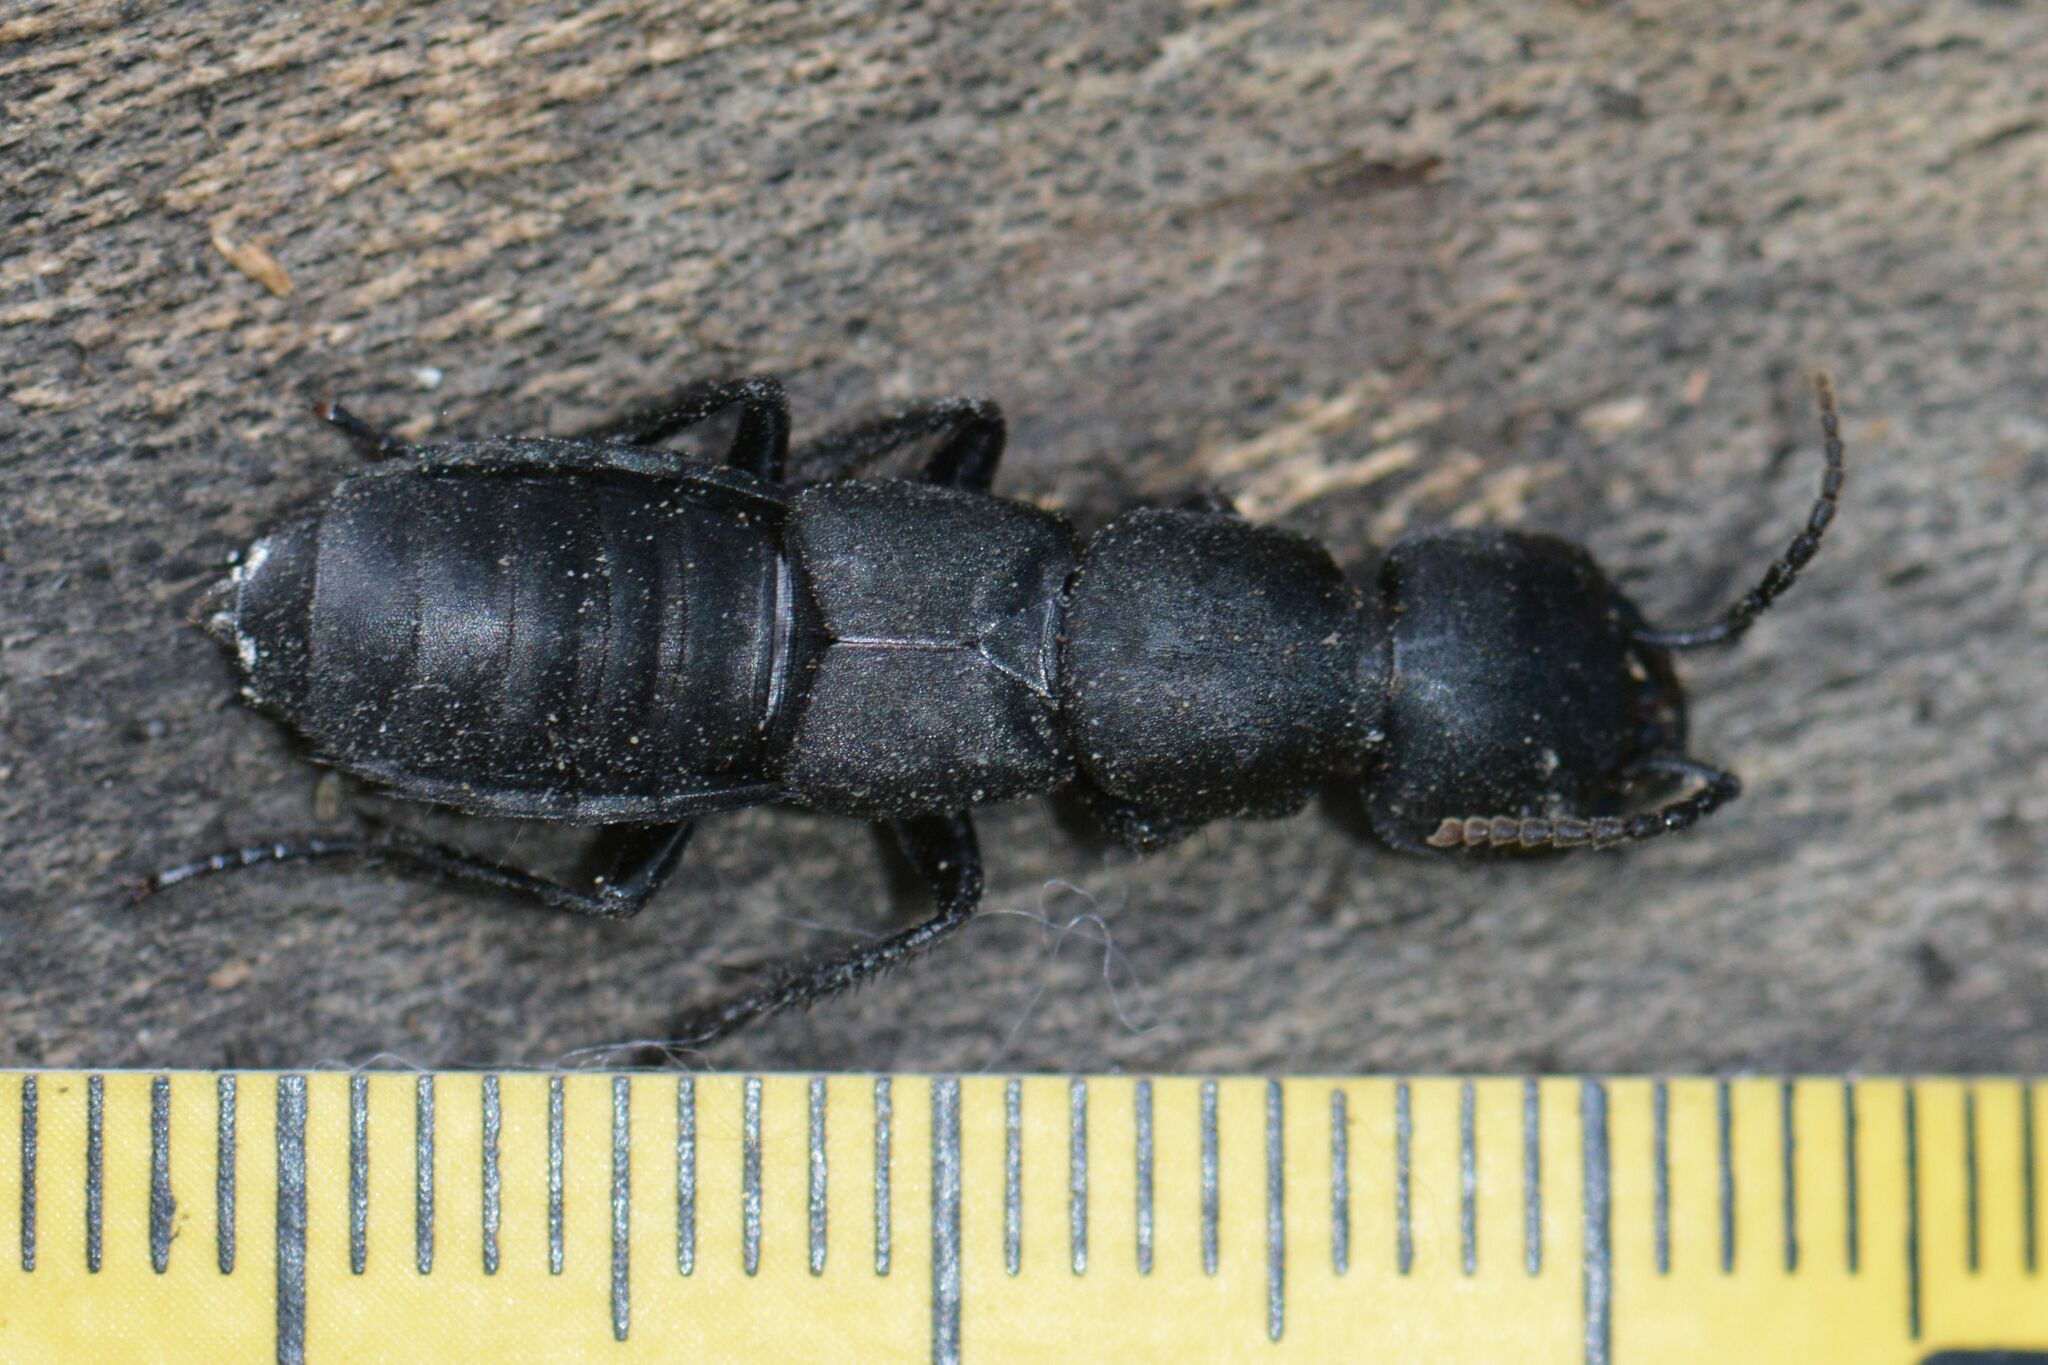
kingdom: Animalia
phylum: Arthropoda
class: Insecta
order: Coleoptera
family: Staphylinidae
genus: Ocypus
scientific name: Ocypus tenebricosus
